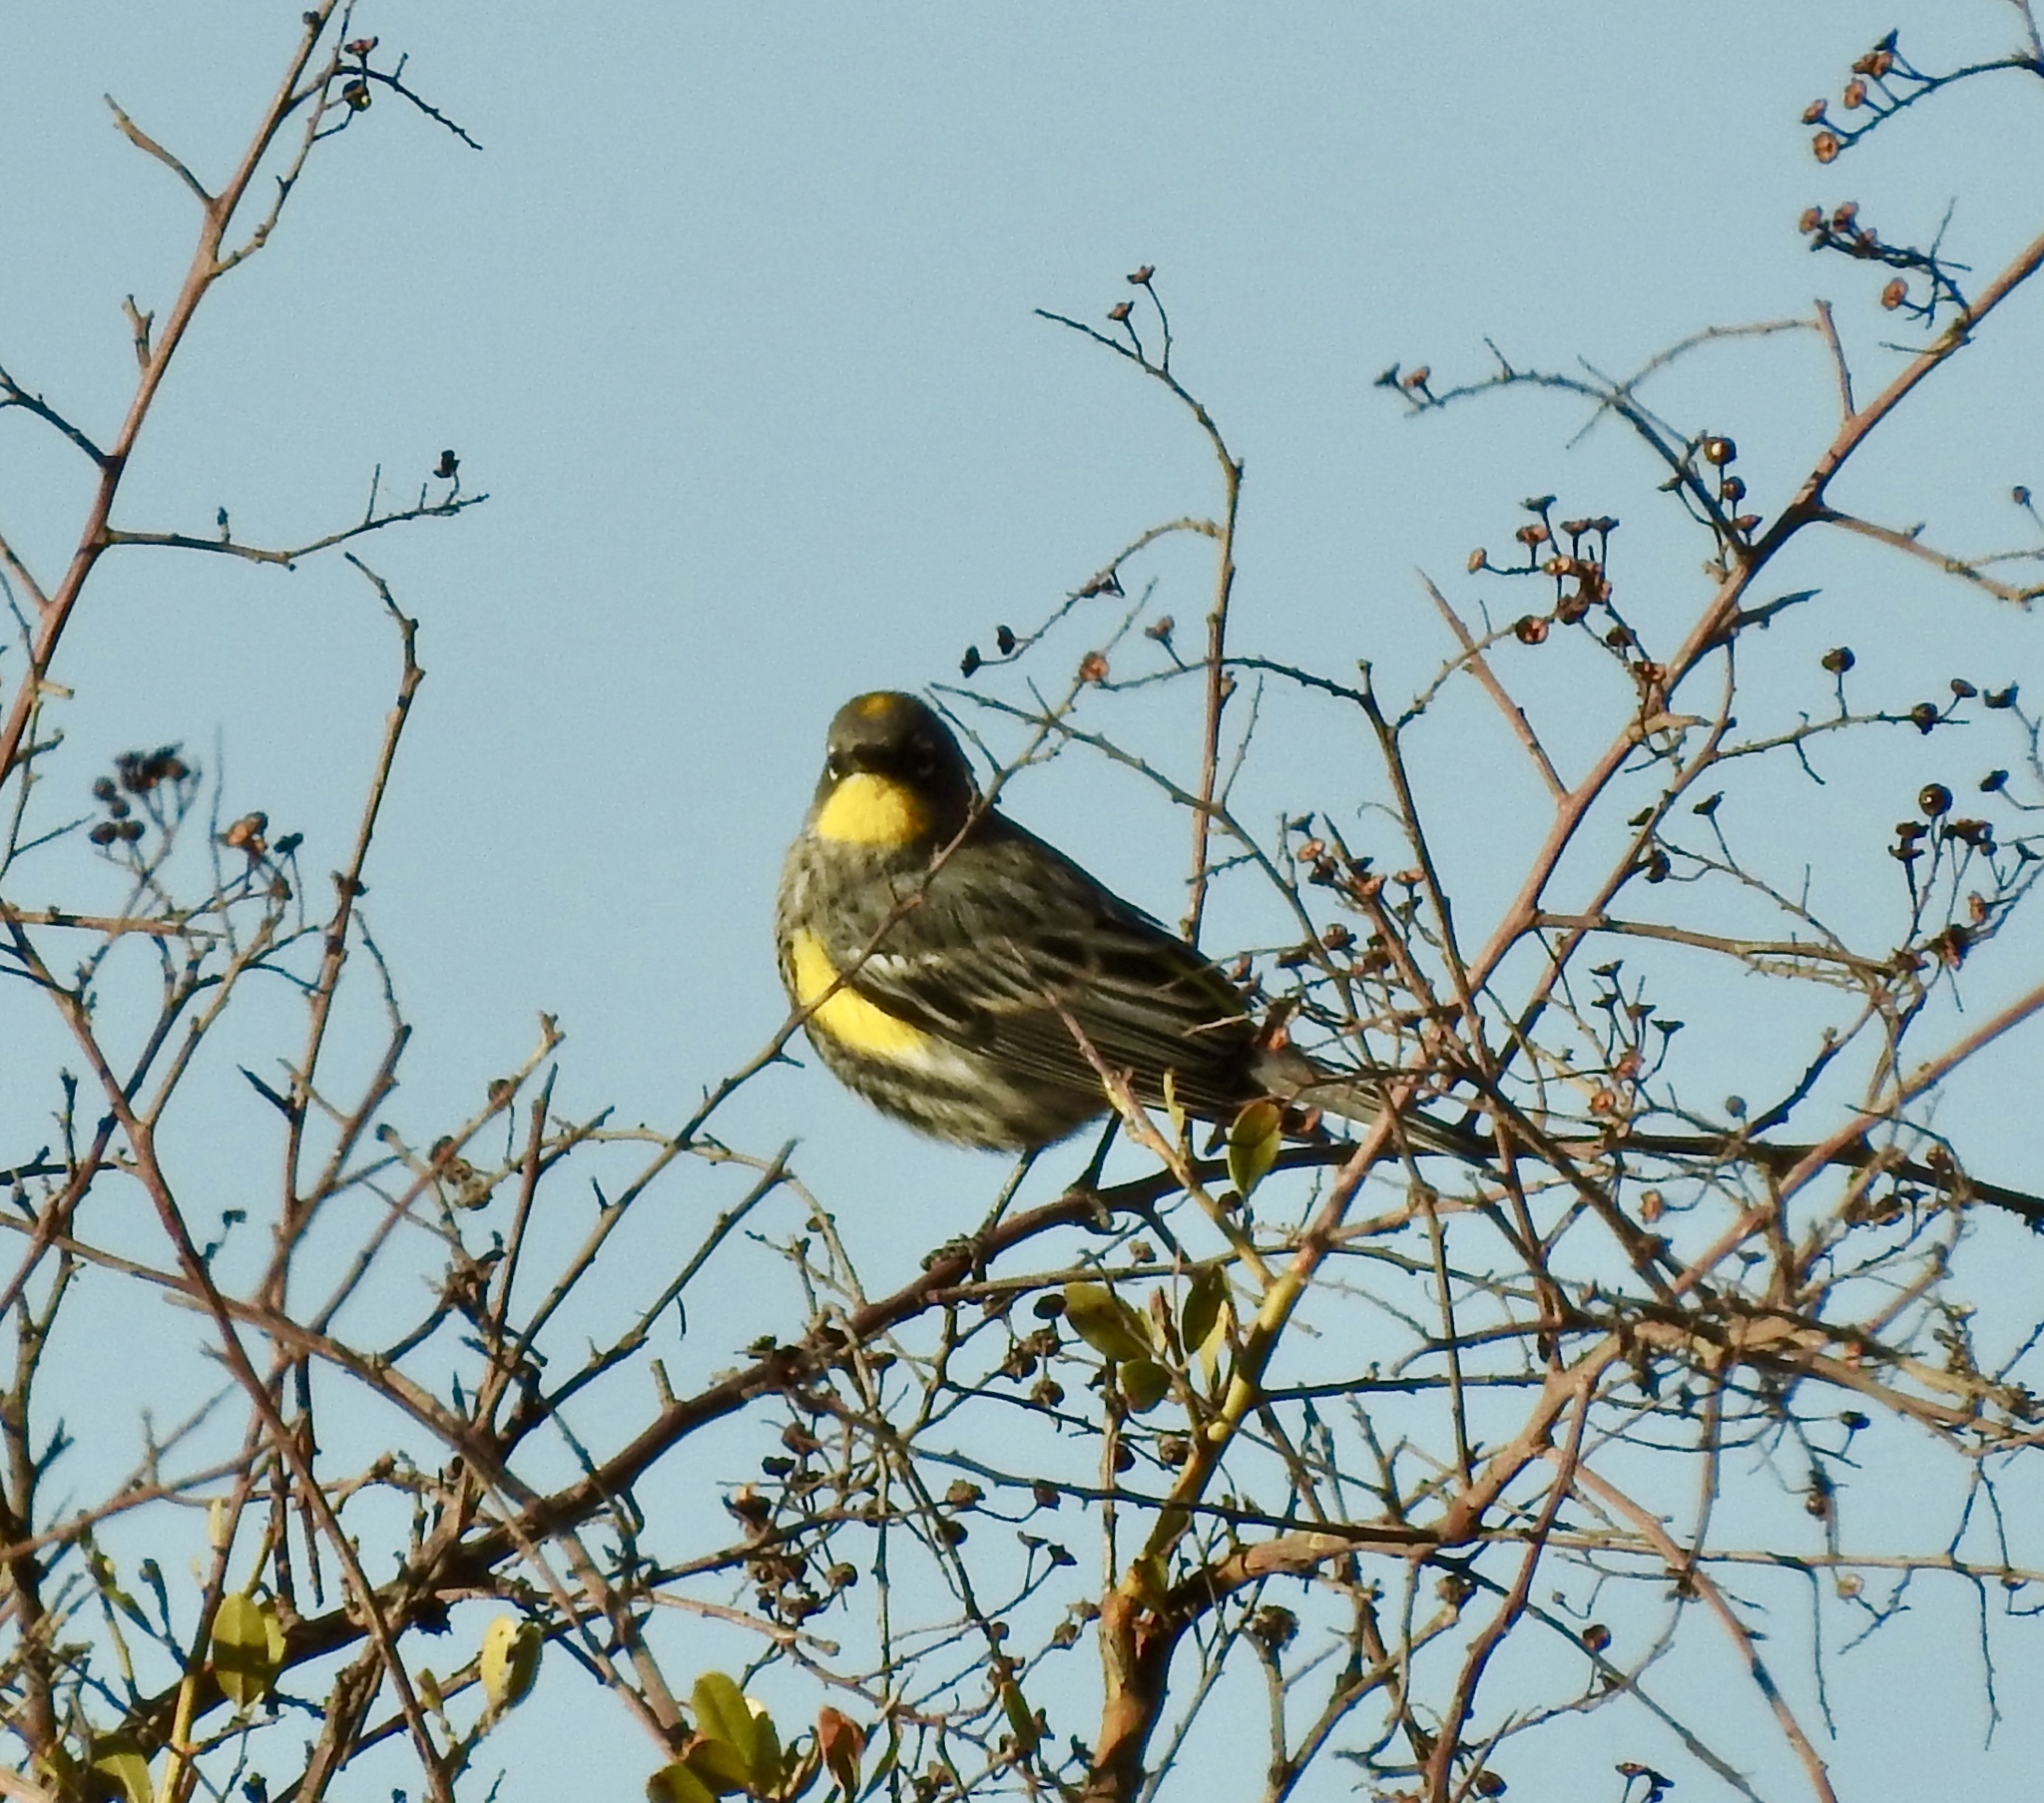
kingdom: Animalia
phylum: Chordata
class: Aves
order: Passeriformes
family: Parulidae
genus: Setophaga
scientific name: Setophaga coronata
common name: Myrtle warbler
